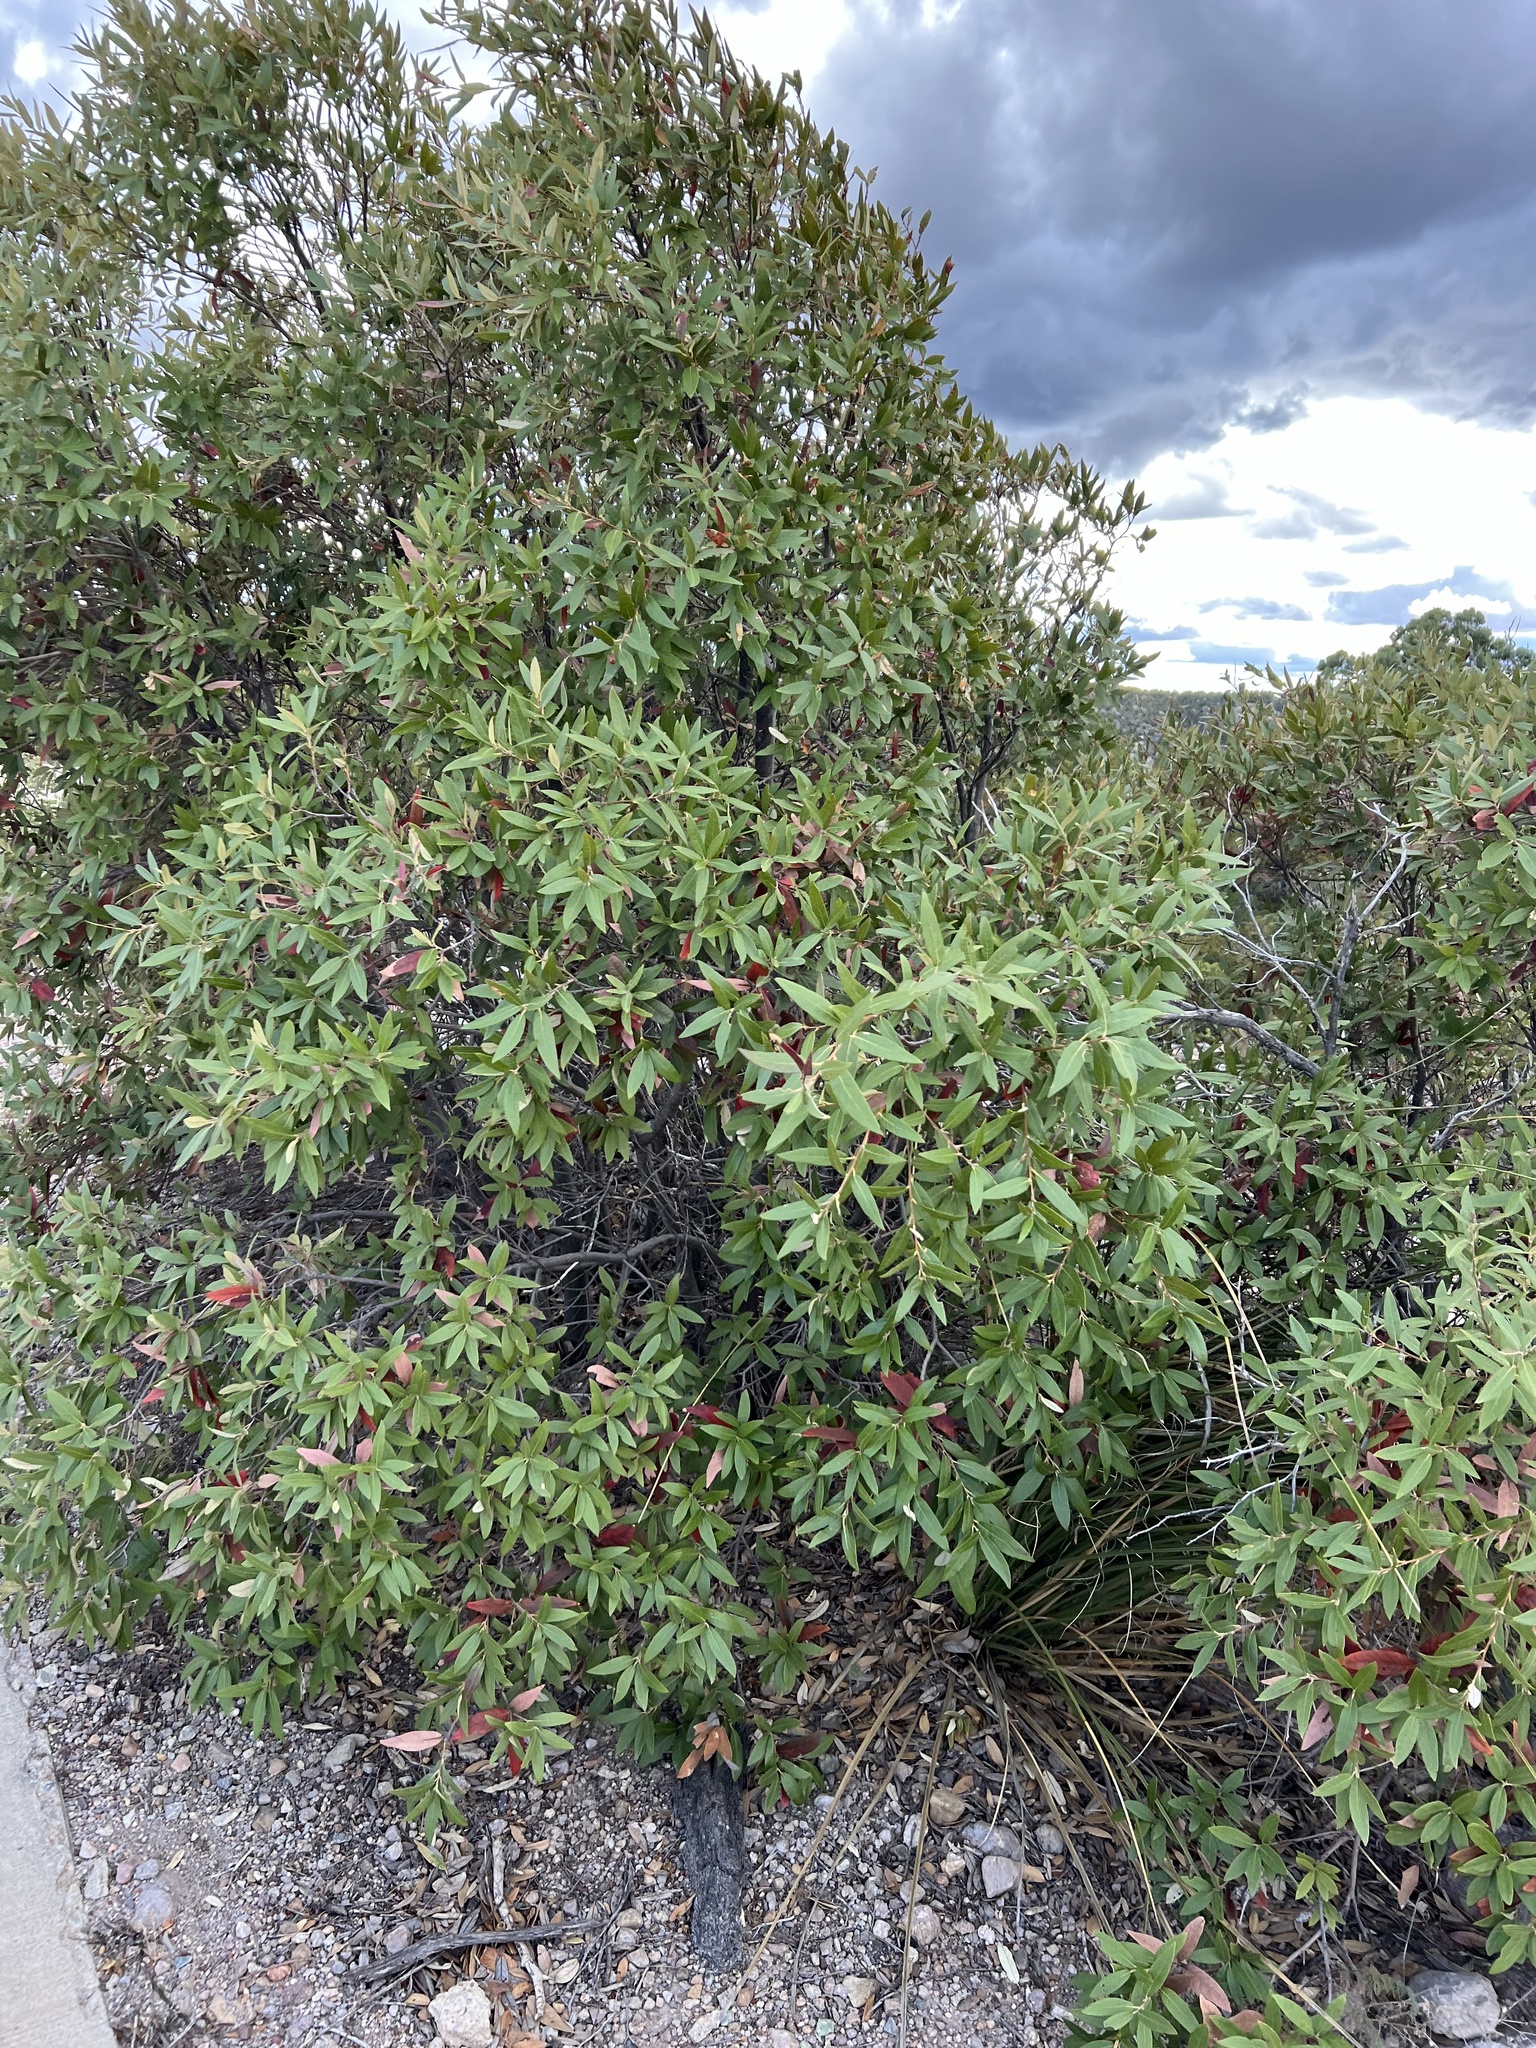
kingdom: Plantae
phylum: Tracheophyta
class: Magnoliopsida
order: Fagales
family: Fagaceae
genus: Quercus
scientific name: Quercus hypoleucoides
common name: Silverleaf oak
